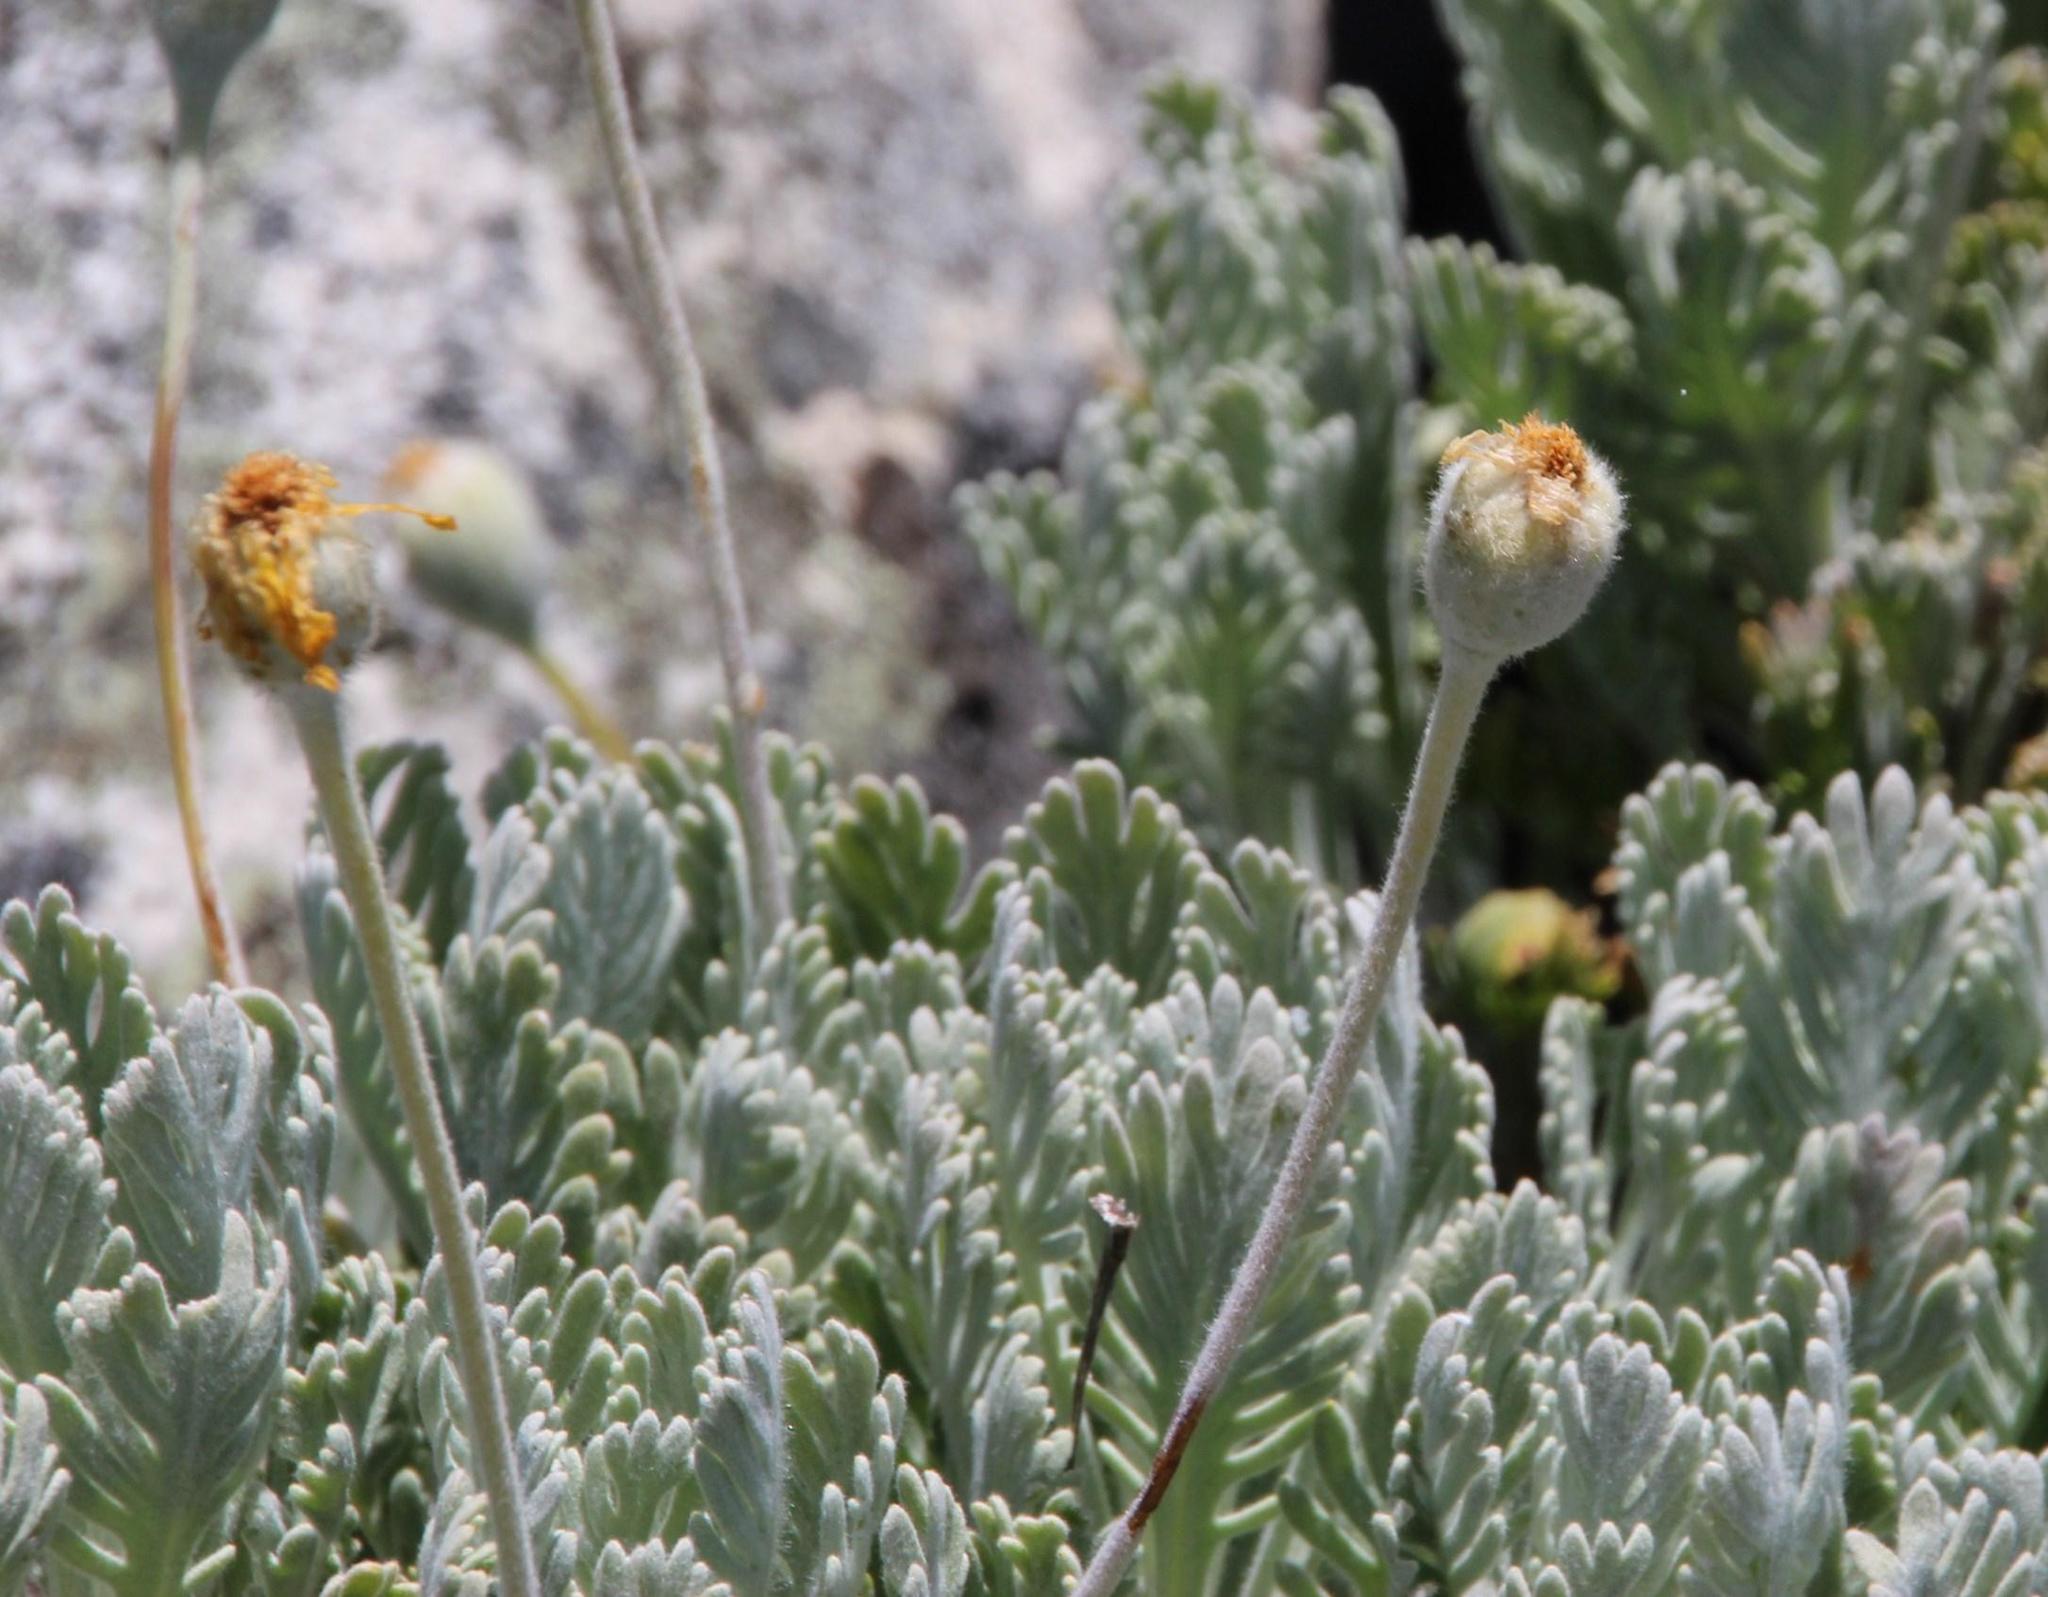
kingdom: Plantae
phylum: Tracheophyta
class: Magnoliopsida
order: Asterales
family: Asteraceae
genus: Euryops
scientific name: Euryops pectinatus
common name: Gray-leaf euryops
